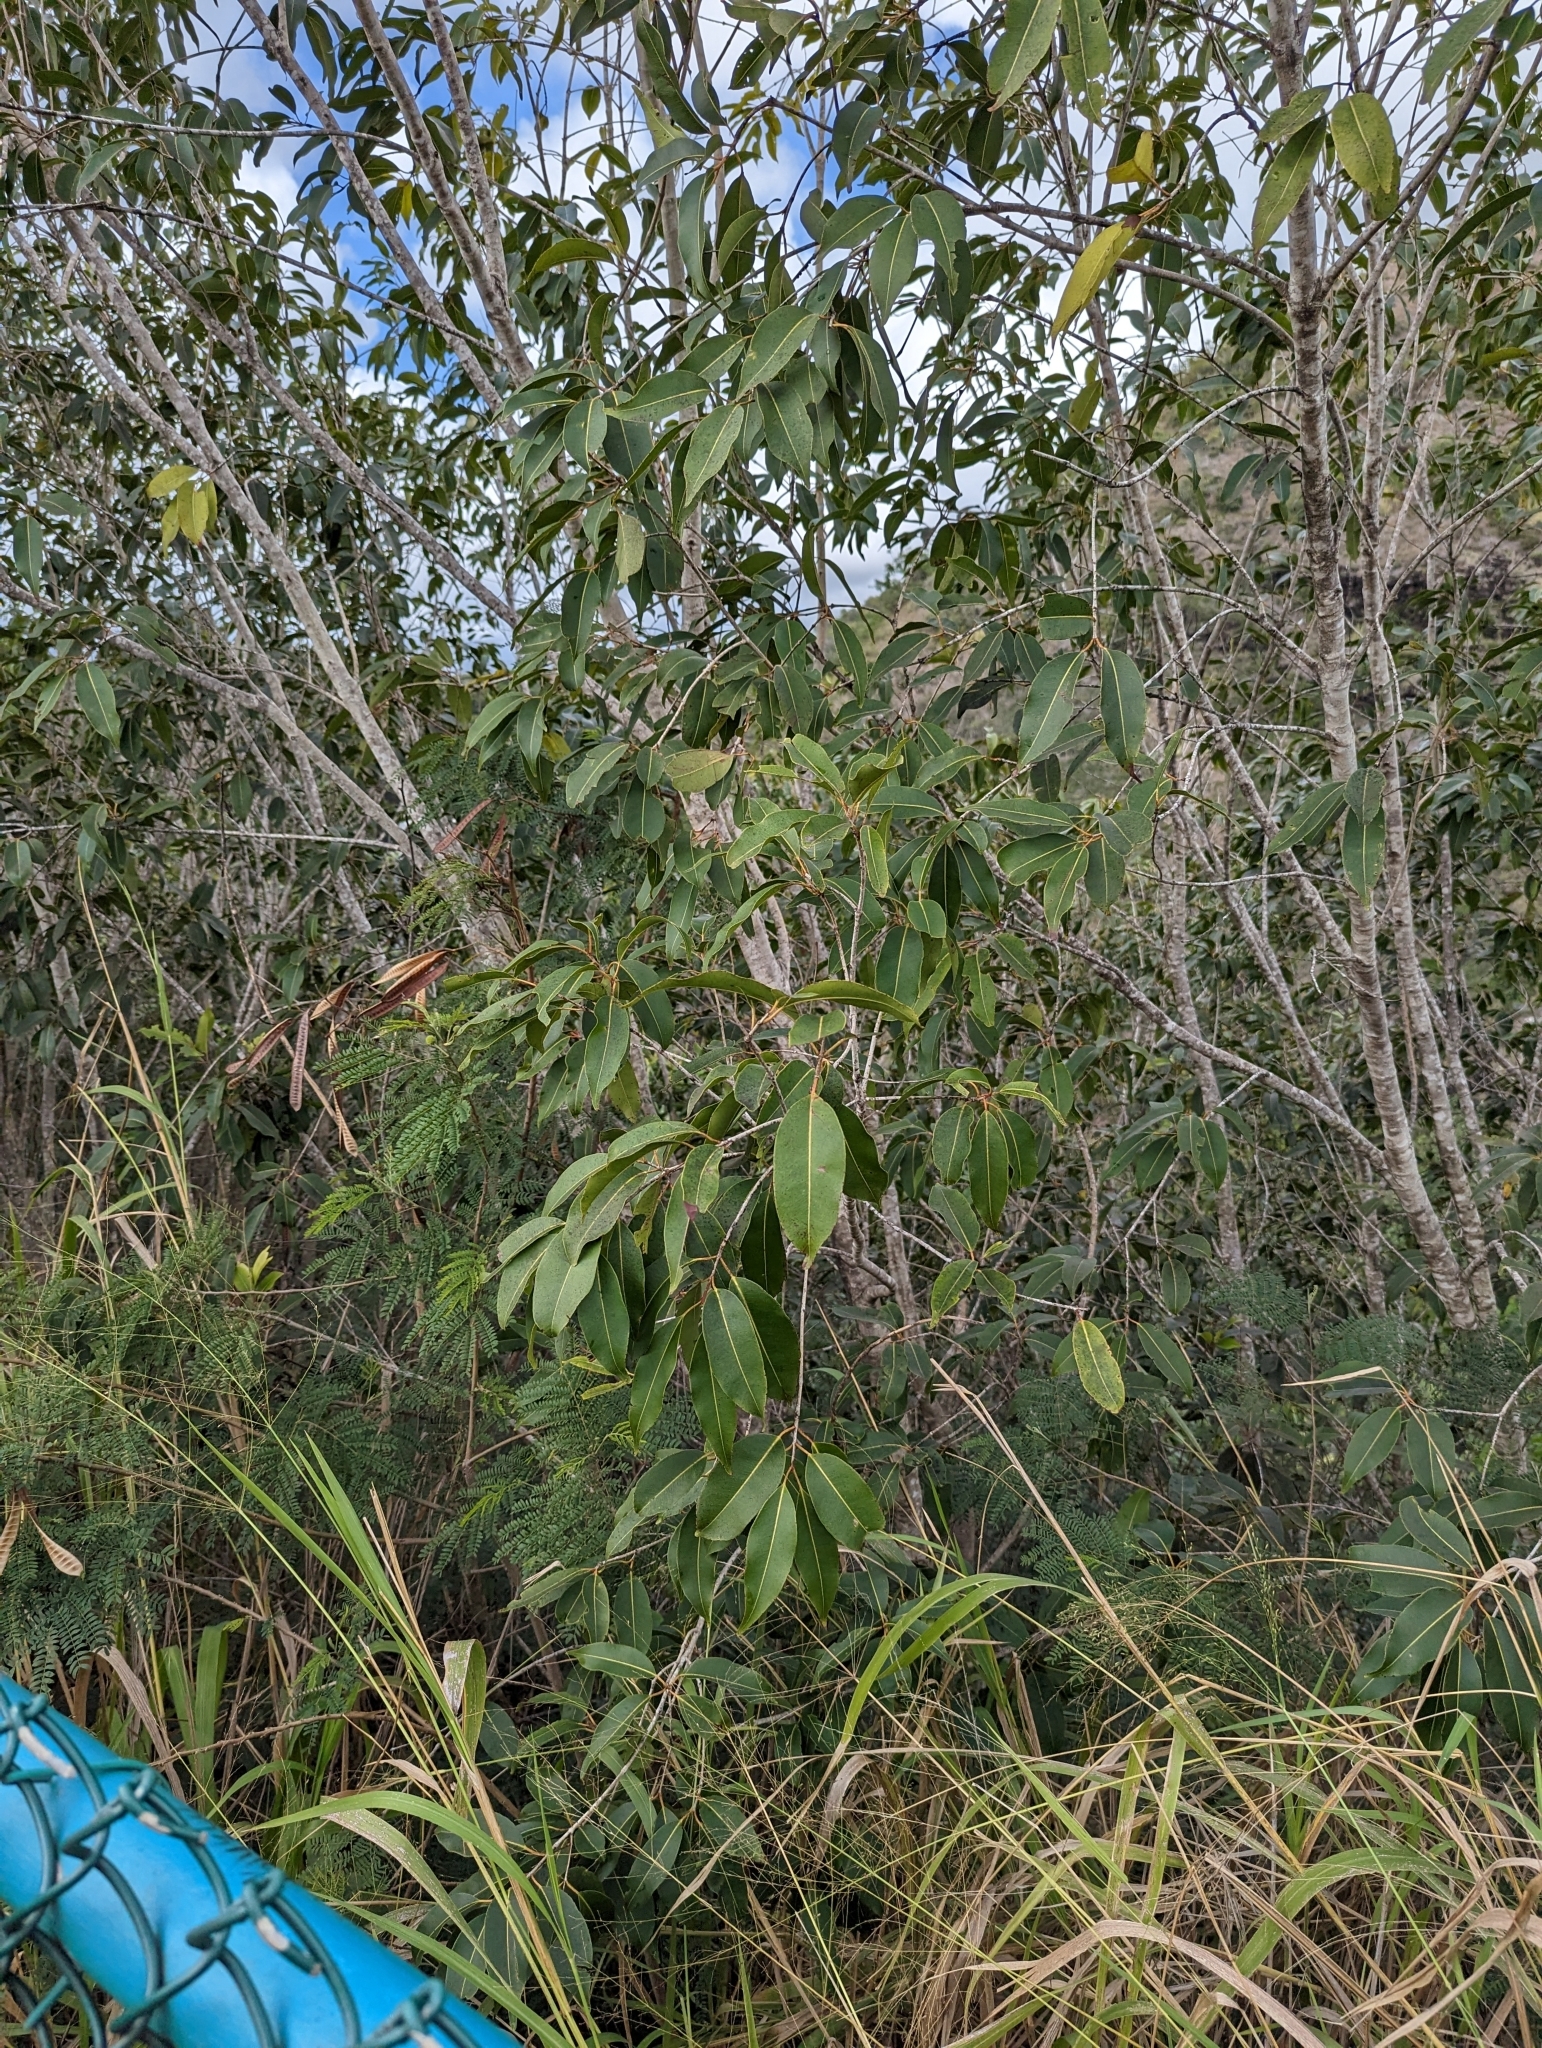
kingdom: Plantae
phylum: Tracheophyta
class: Magnoliopsida
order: Myrtales
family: Myrtaceae
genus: Syzygium
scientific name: Syzygium cumini
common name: Java plum
